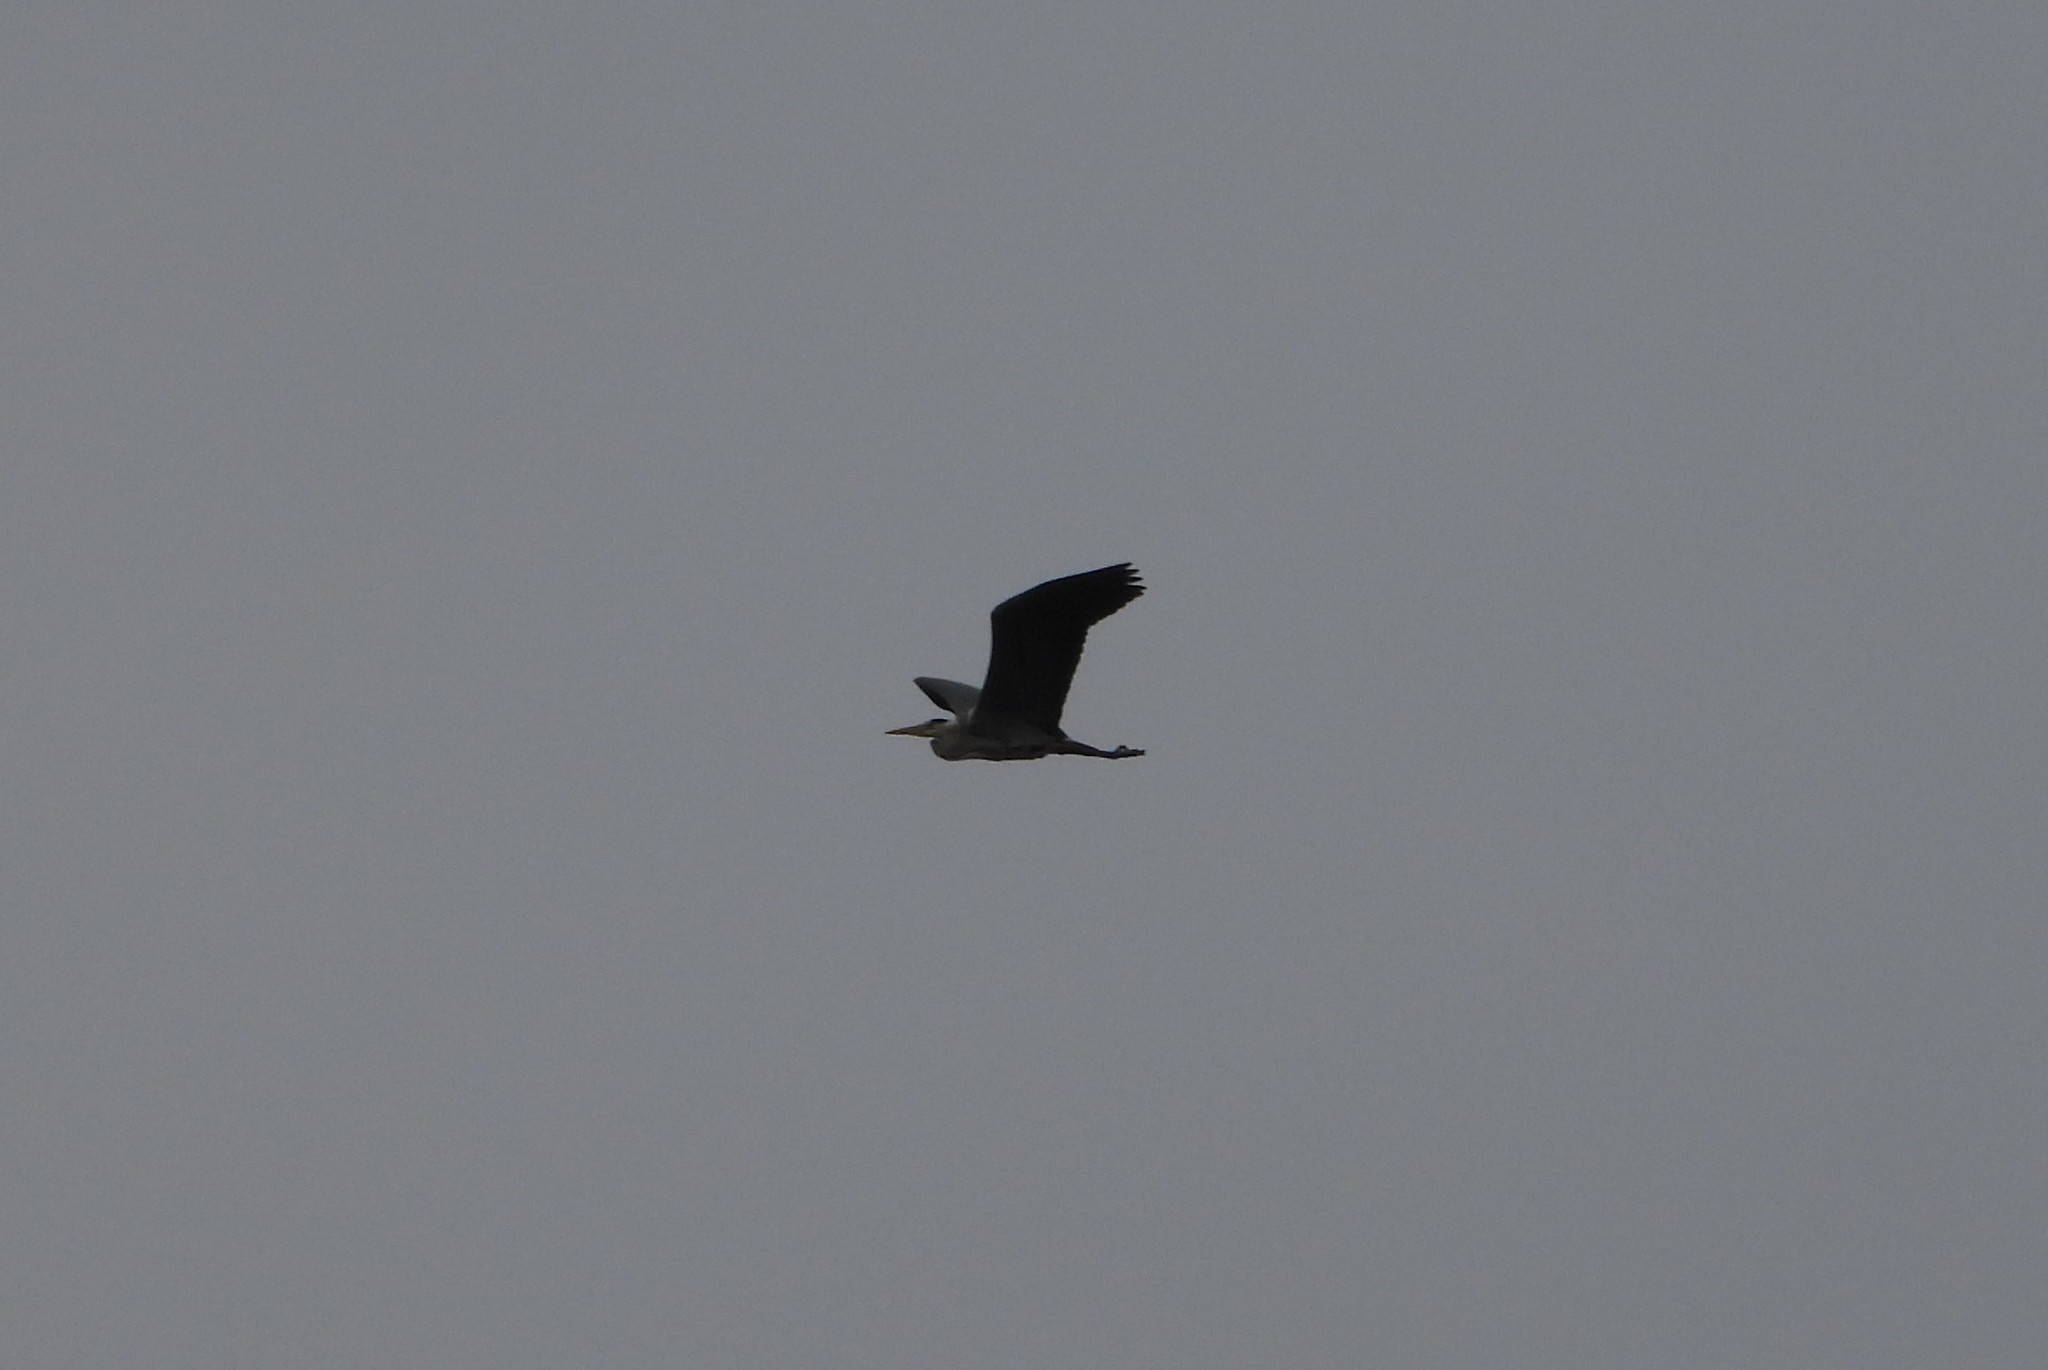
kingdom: Animalia
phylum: Chordata
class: Aves
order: Pelecaniformes
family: Ardeidae
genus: Ardea
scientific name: Ardea cinerea
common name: Grey heron
